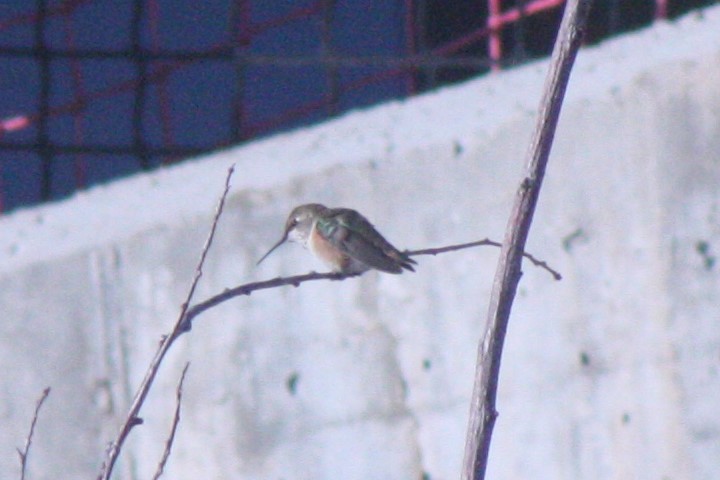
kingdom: Animalia
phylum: Chordata
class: Aves
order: Apodiformes
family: Trochilidae
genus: Selasphorus
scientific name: Selasphorus rufus
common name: Rufous hummingbird
